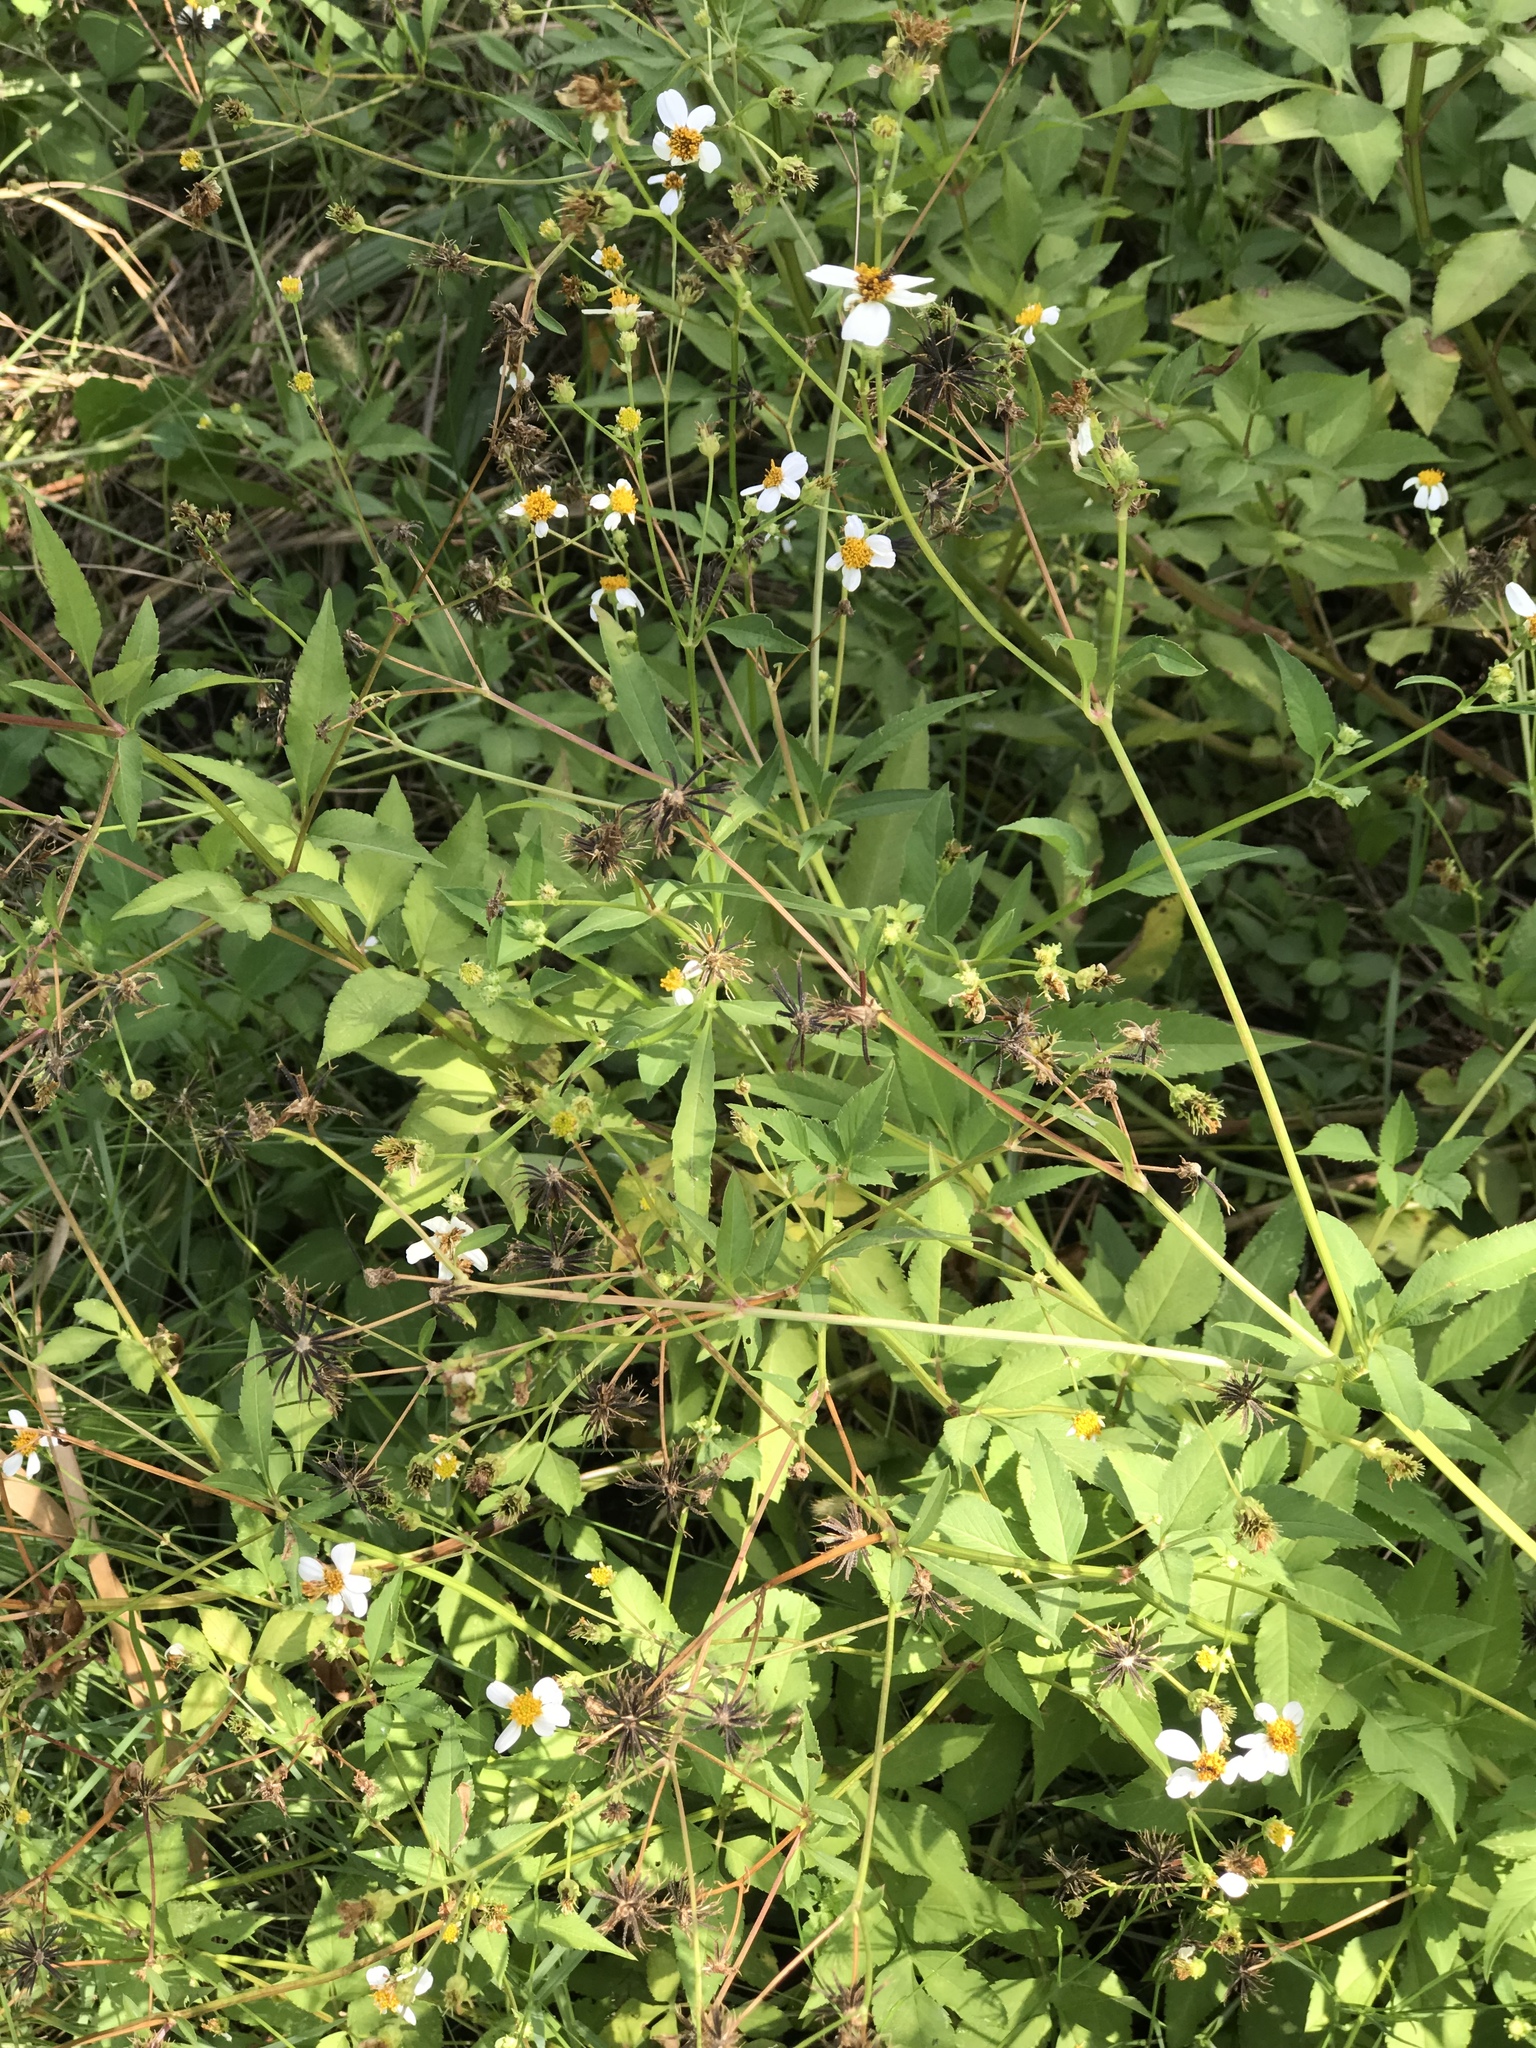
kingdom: Plantae
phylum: Tracheophyta
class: Magnoliopsida
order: Asterales
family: Asteraceae
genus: Bidens
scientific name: Bidens alba
